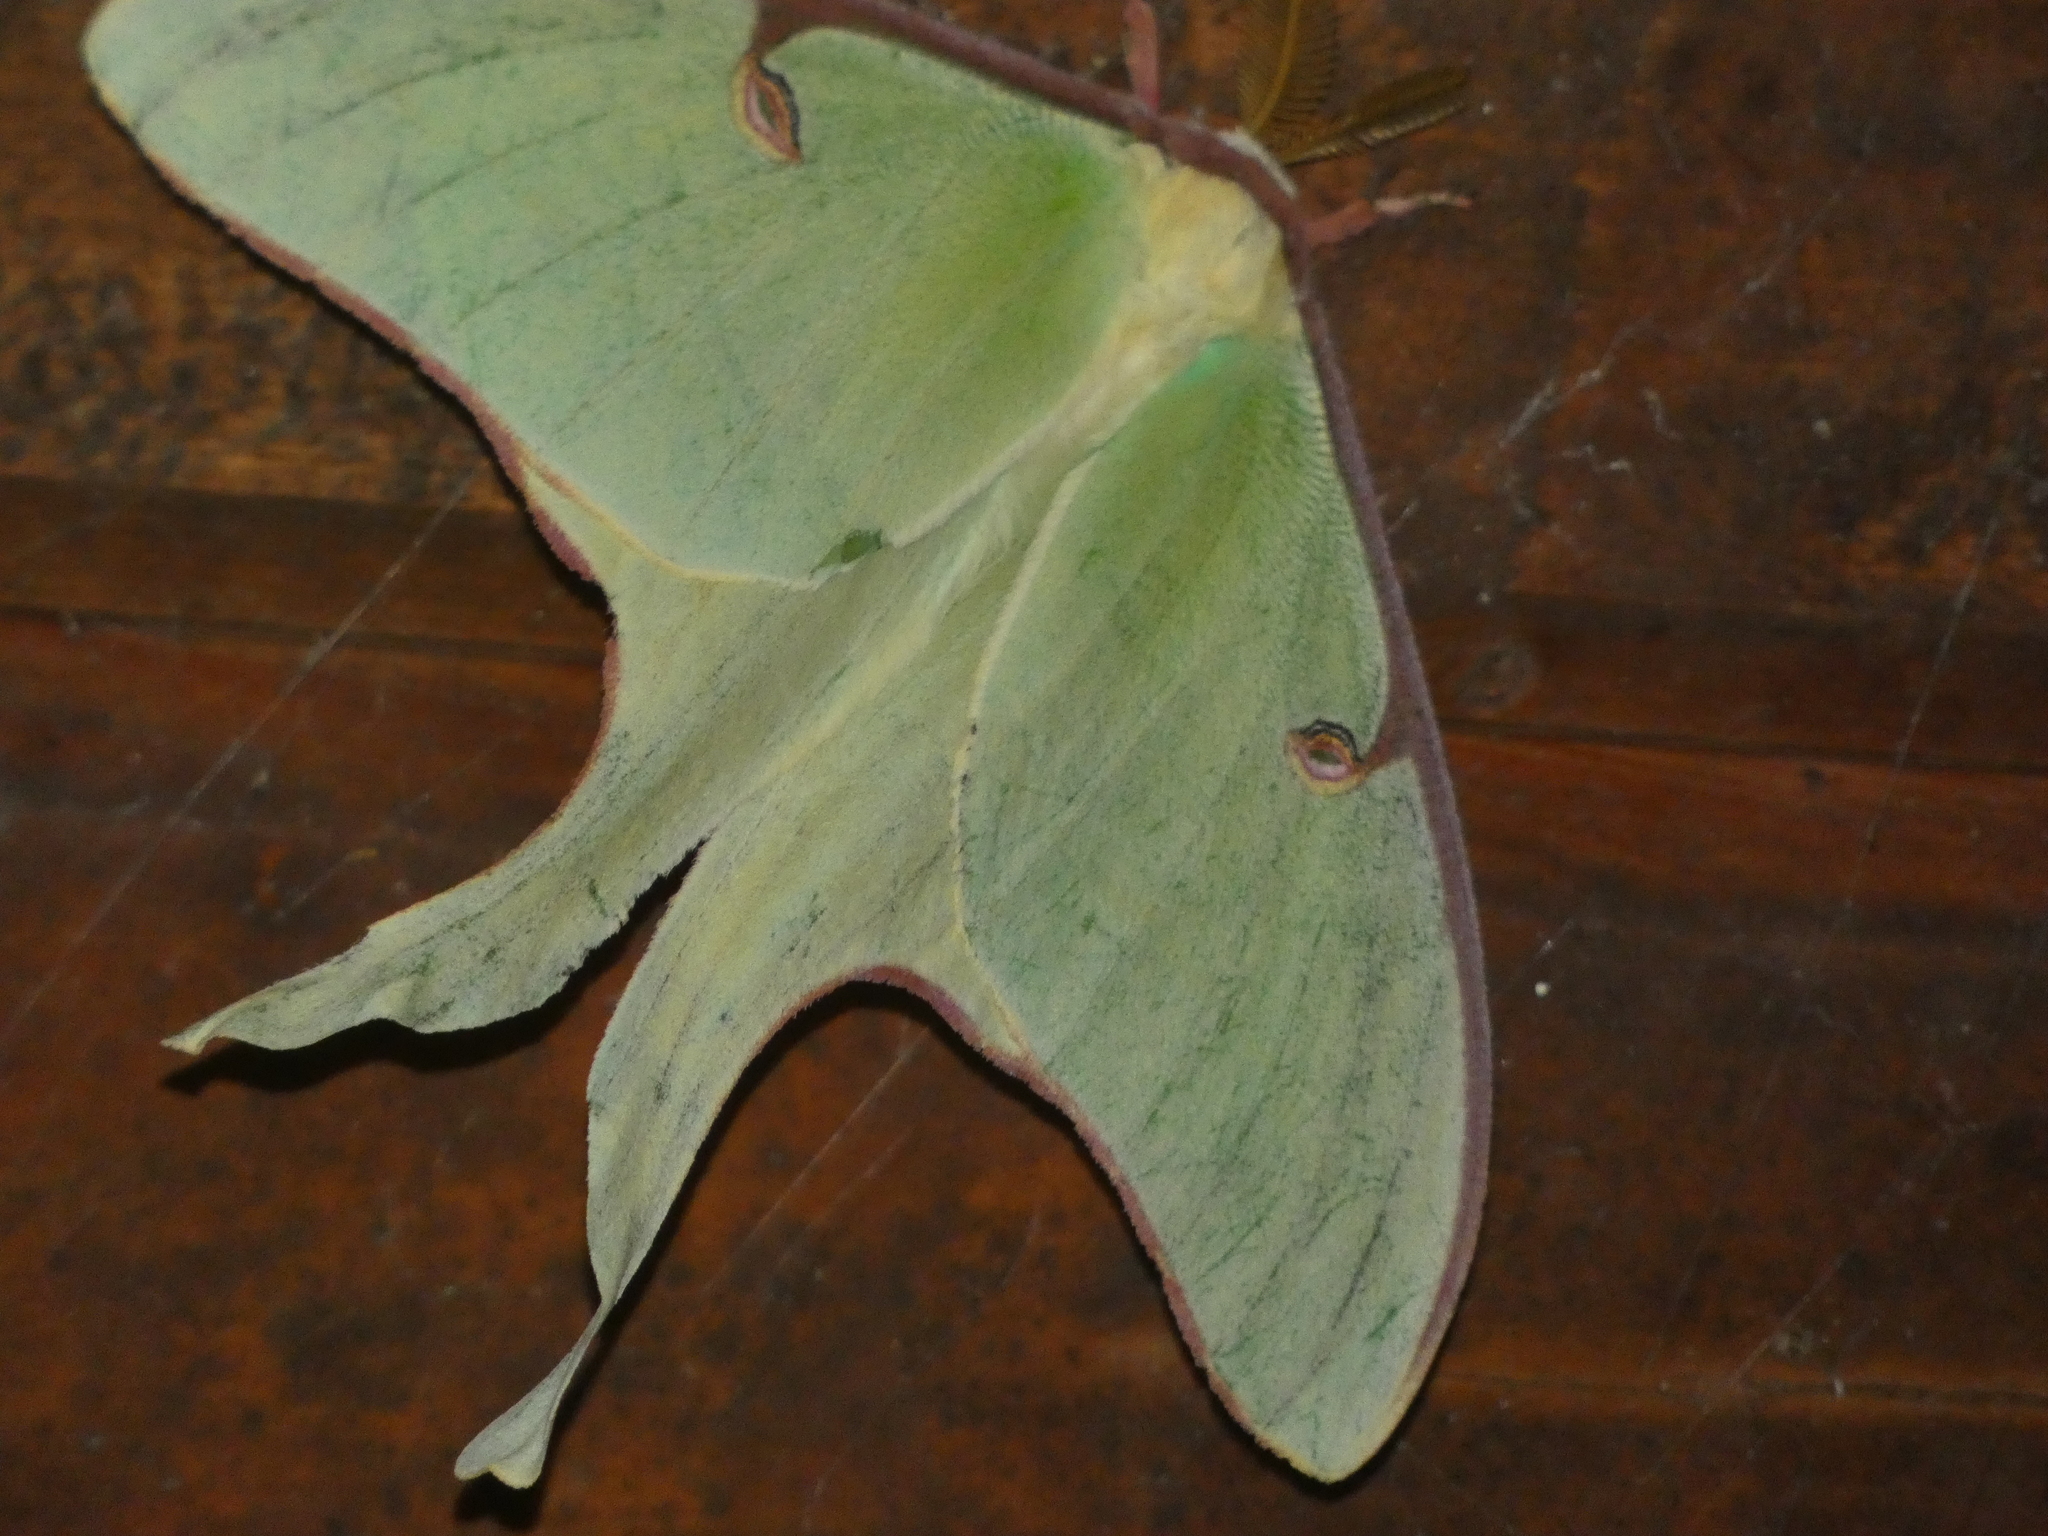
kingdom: Animalia
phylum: Arthropoda
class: Insecta
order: Lepidoptera
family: Saturniidae
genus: Actias
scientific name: Actias luna
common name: Luna moth
